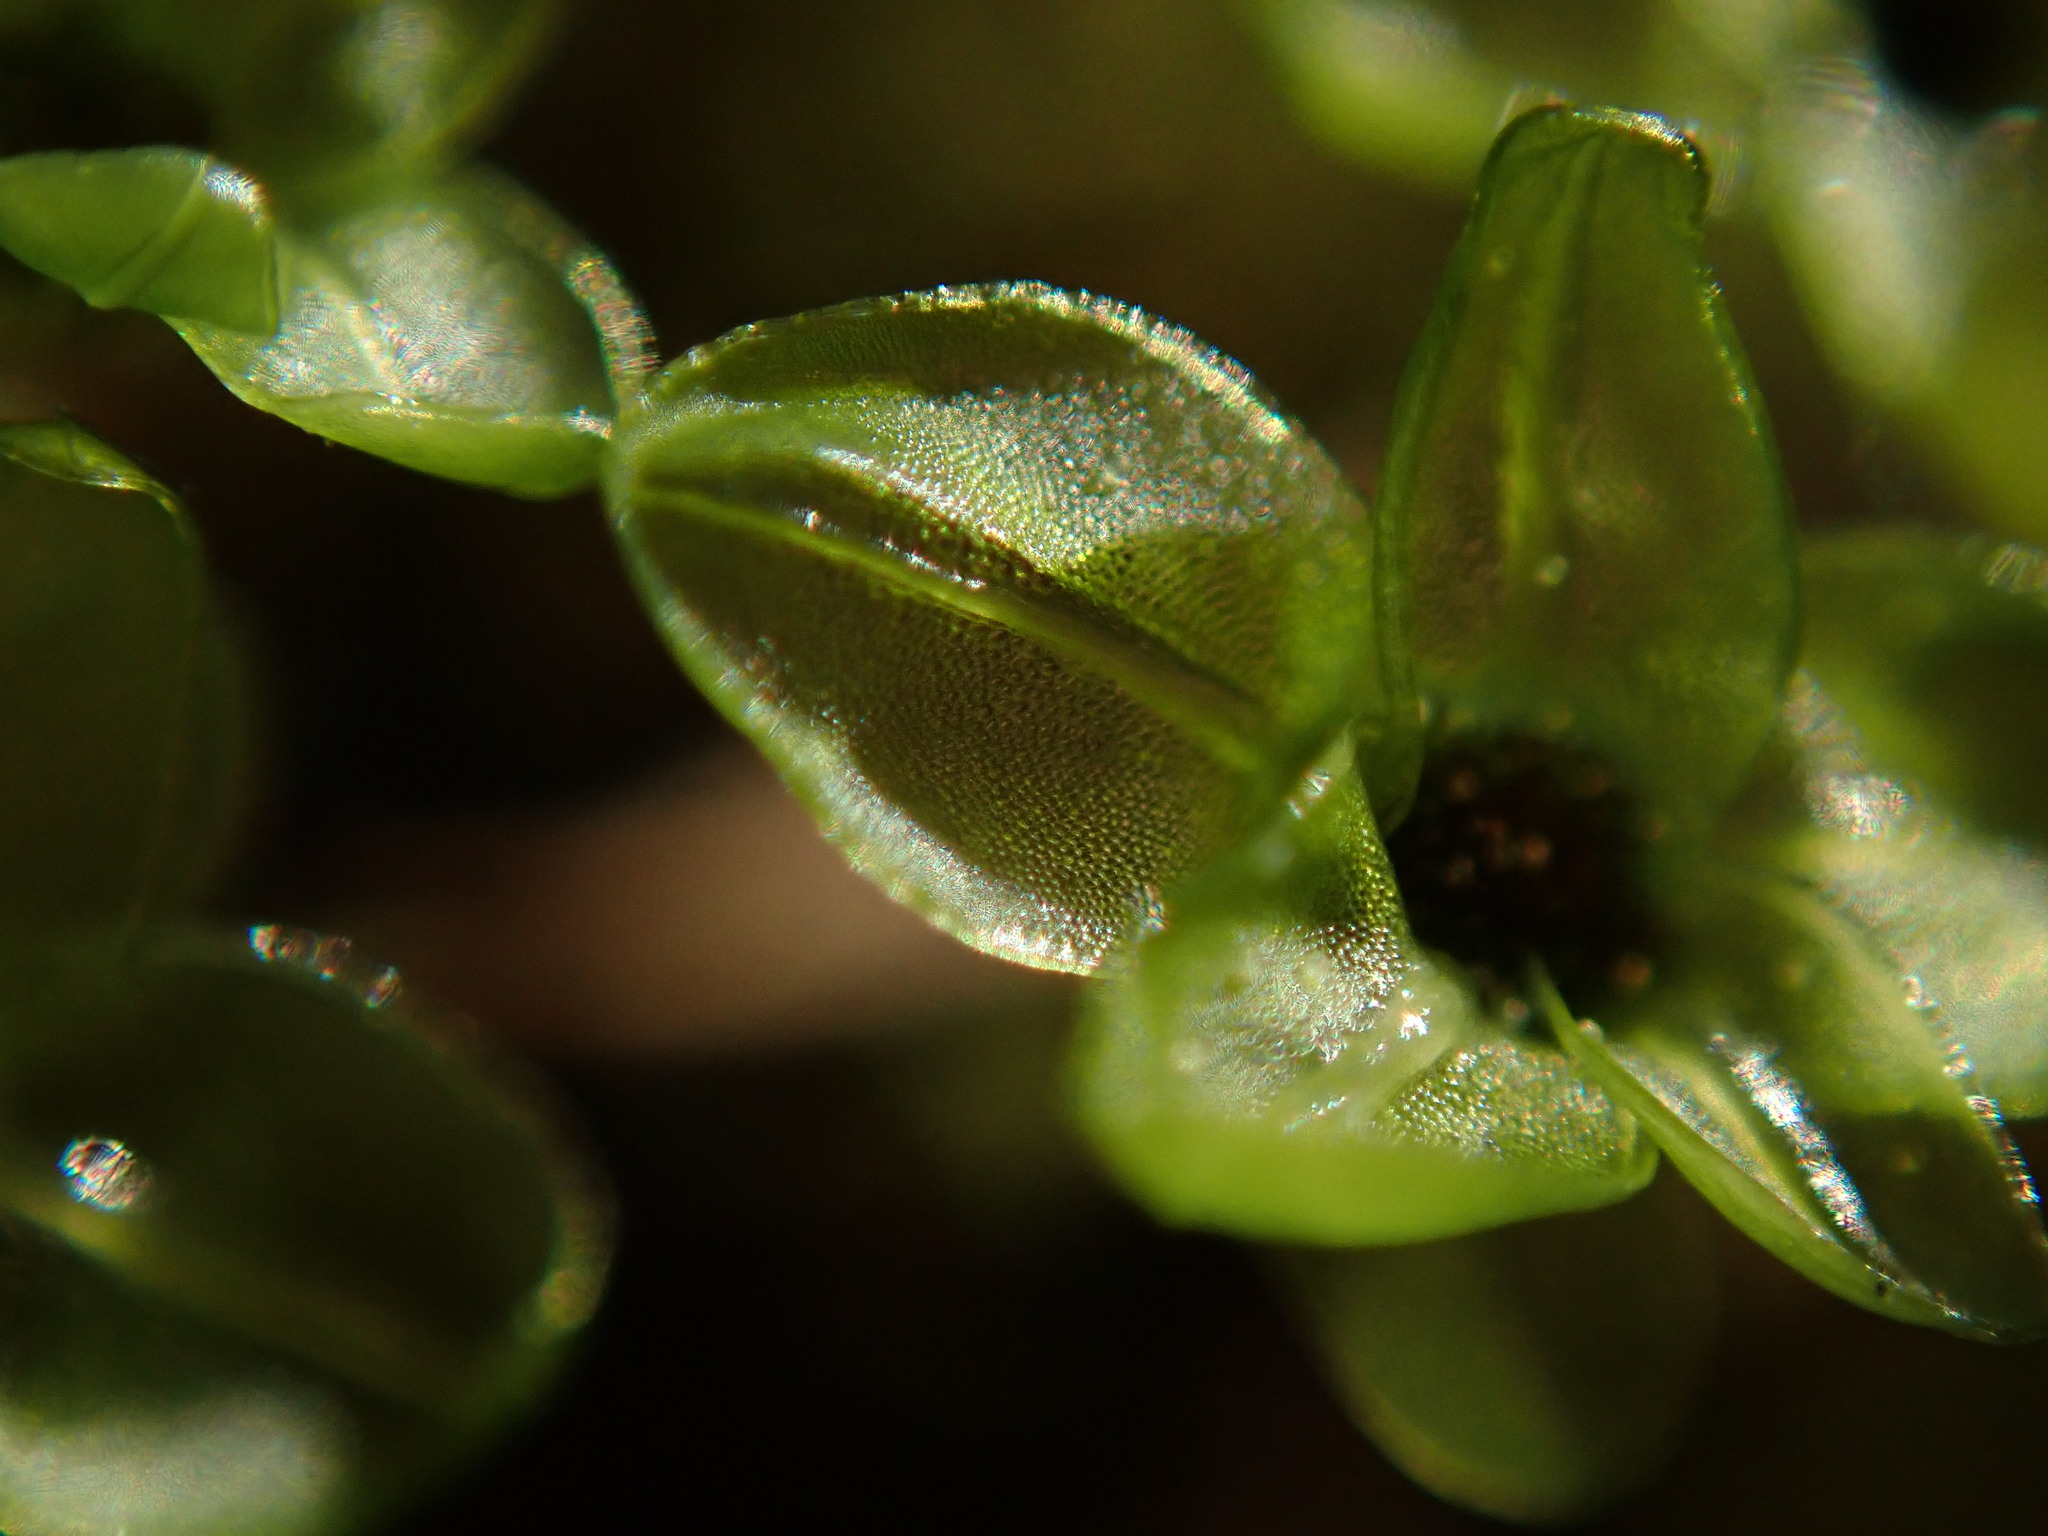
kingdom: Plantae
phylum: Bryophyta
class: Bryopsida
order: Bryales
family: Mniaceae
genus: Rhizomnium
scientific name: Rhizomnium glabrescens
